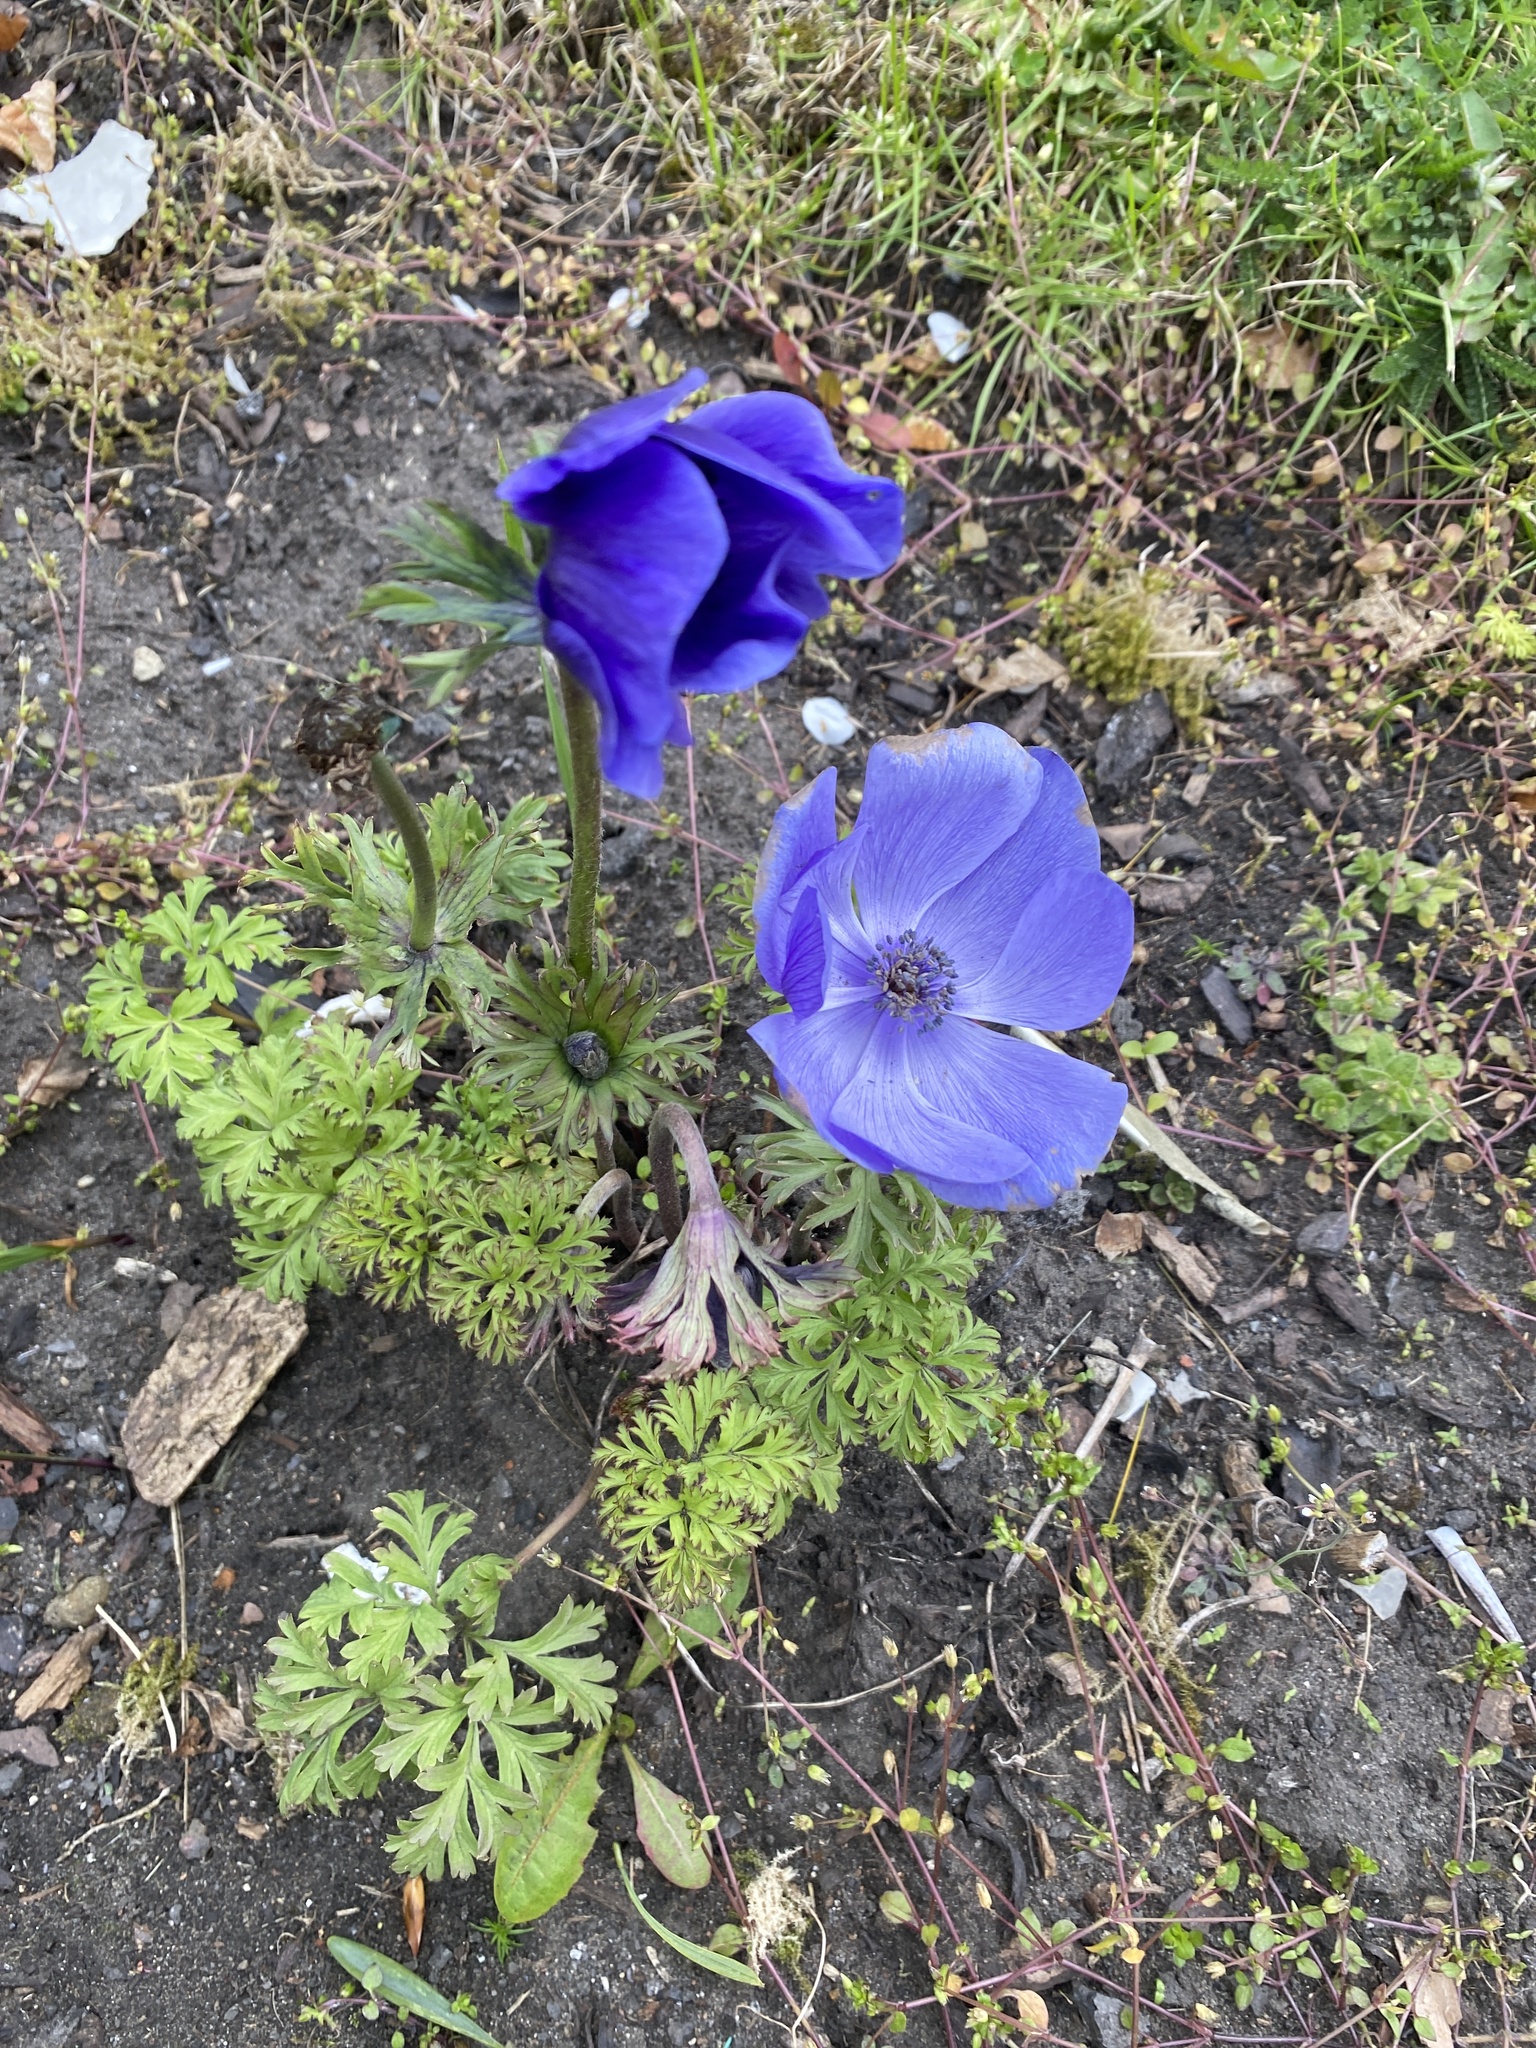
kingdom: Plantae
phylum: Tracheophyta
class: Magnoliopsida
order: Ranunculales
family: Ranunculaceae
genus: Anemone
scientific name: Anemone coronaria
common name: Poppy anemone
